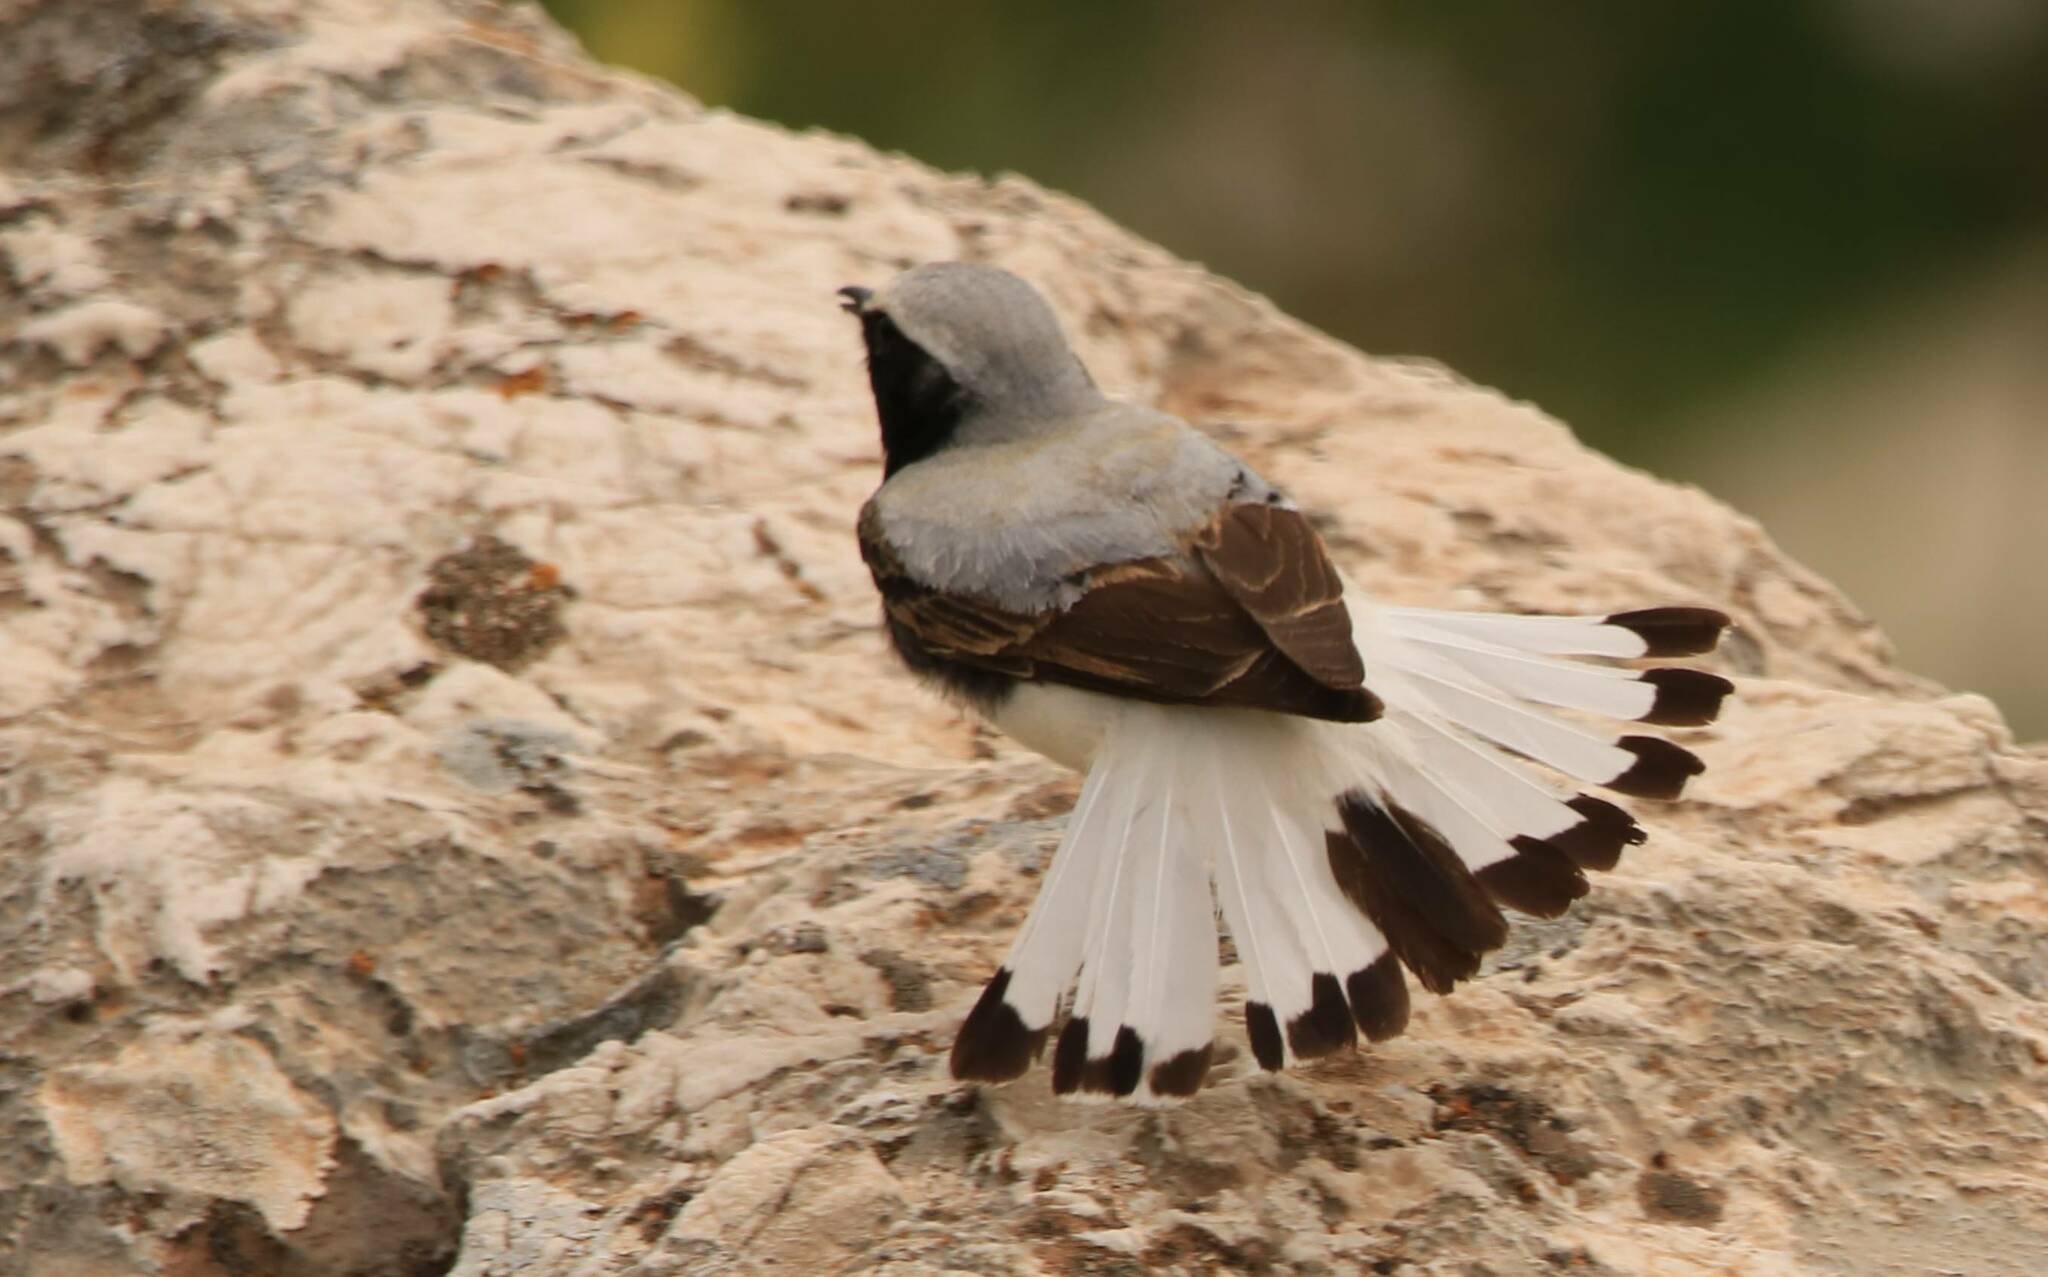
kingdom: Animalia
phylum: Chordata
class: Aves
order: Passeriformes
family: Muscicapidae
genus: Oenanthe
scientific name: Oenanthe oenanthe
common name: Northern wheatear
